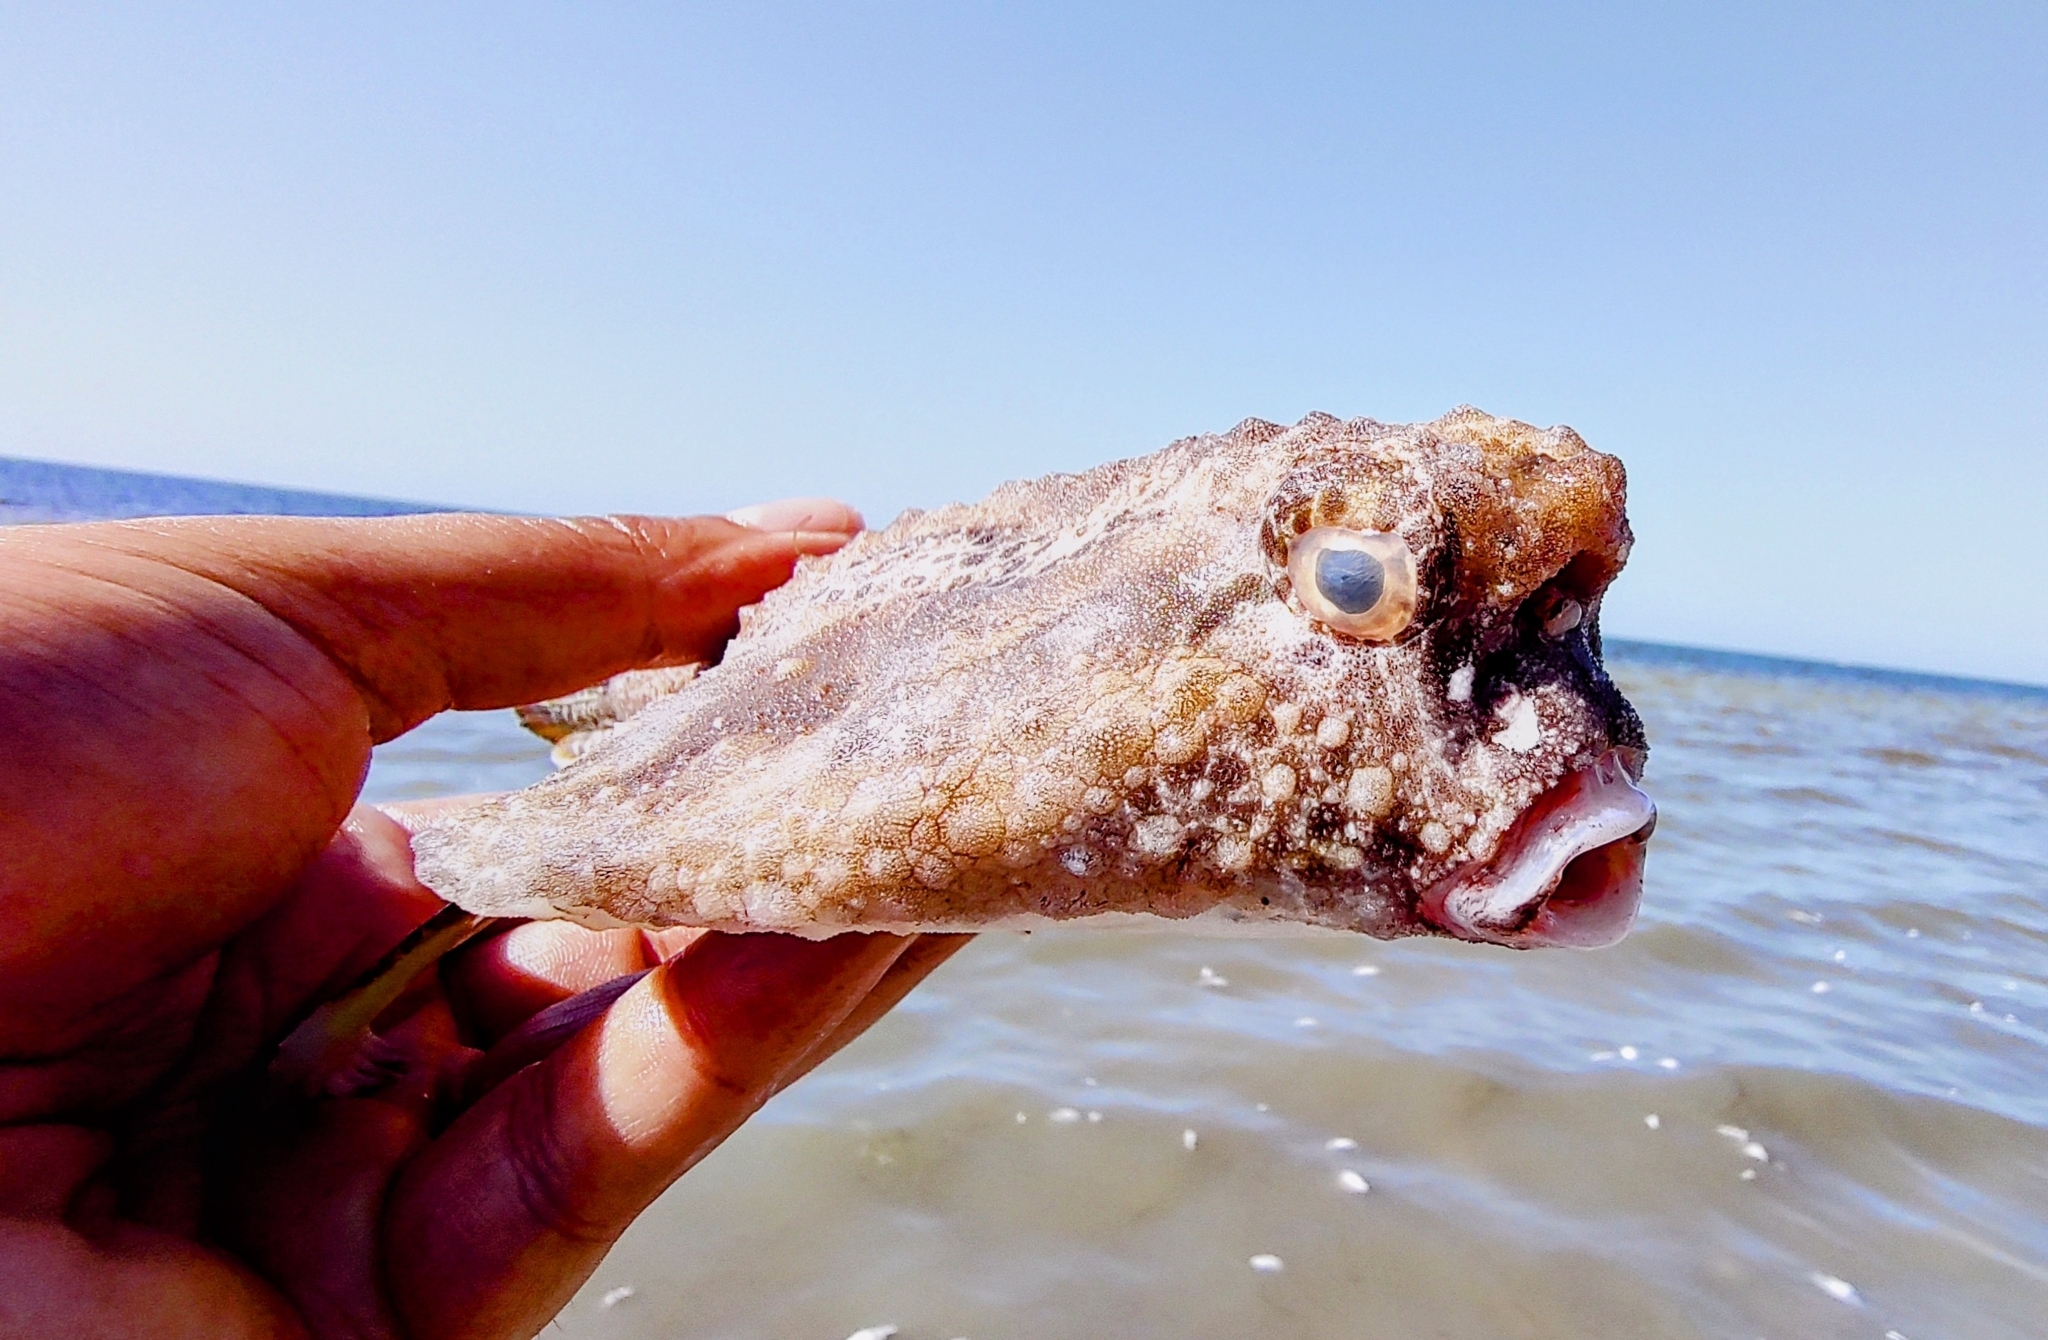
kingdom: Animalia
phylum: Chordata
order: Lophiiformes
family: Ogcocephalidae
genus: Ogcocephalus
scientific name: Ogcocephalus cubifrons
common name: Polka-dot batfish
